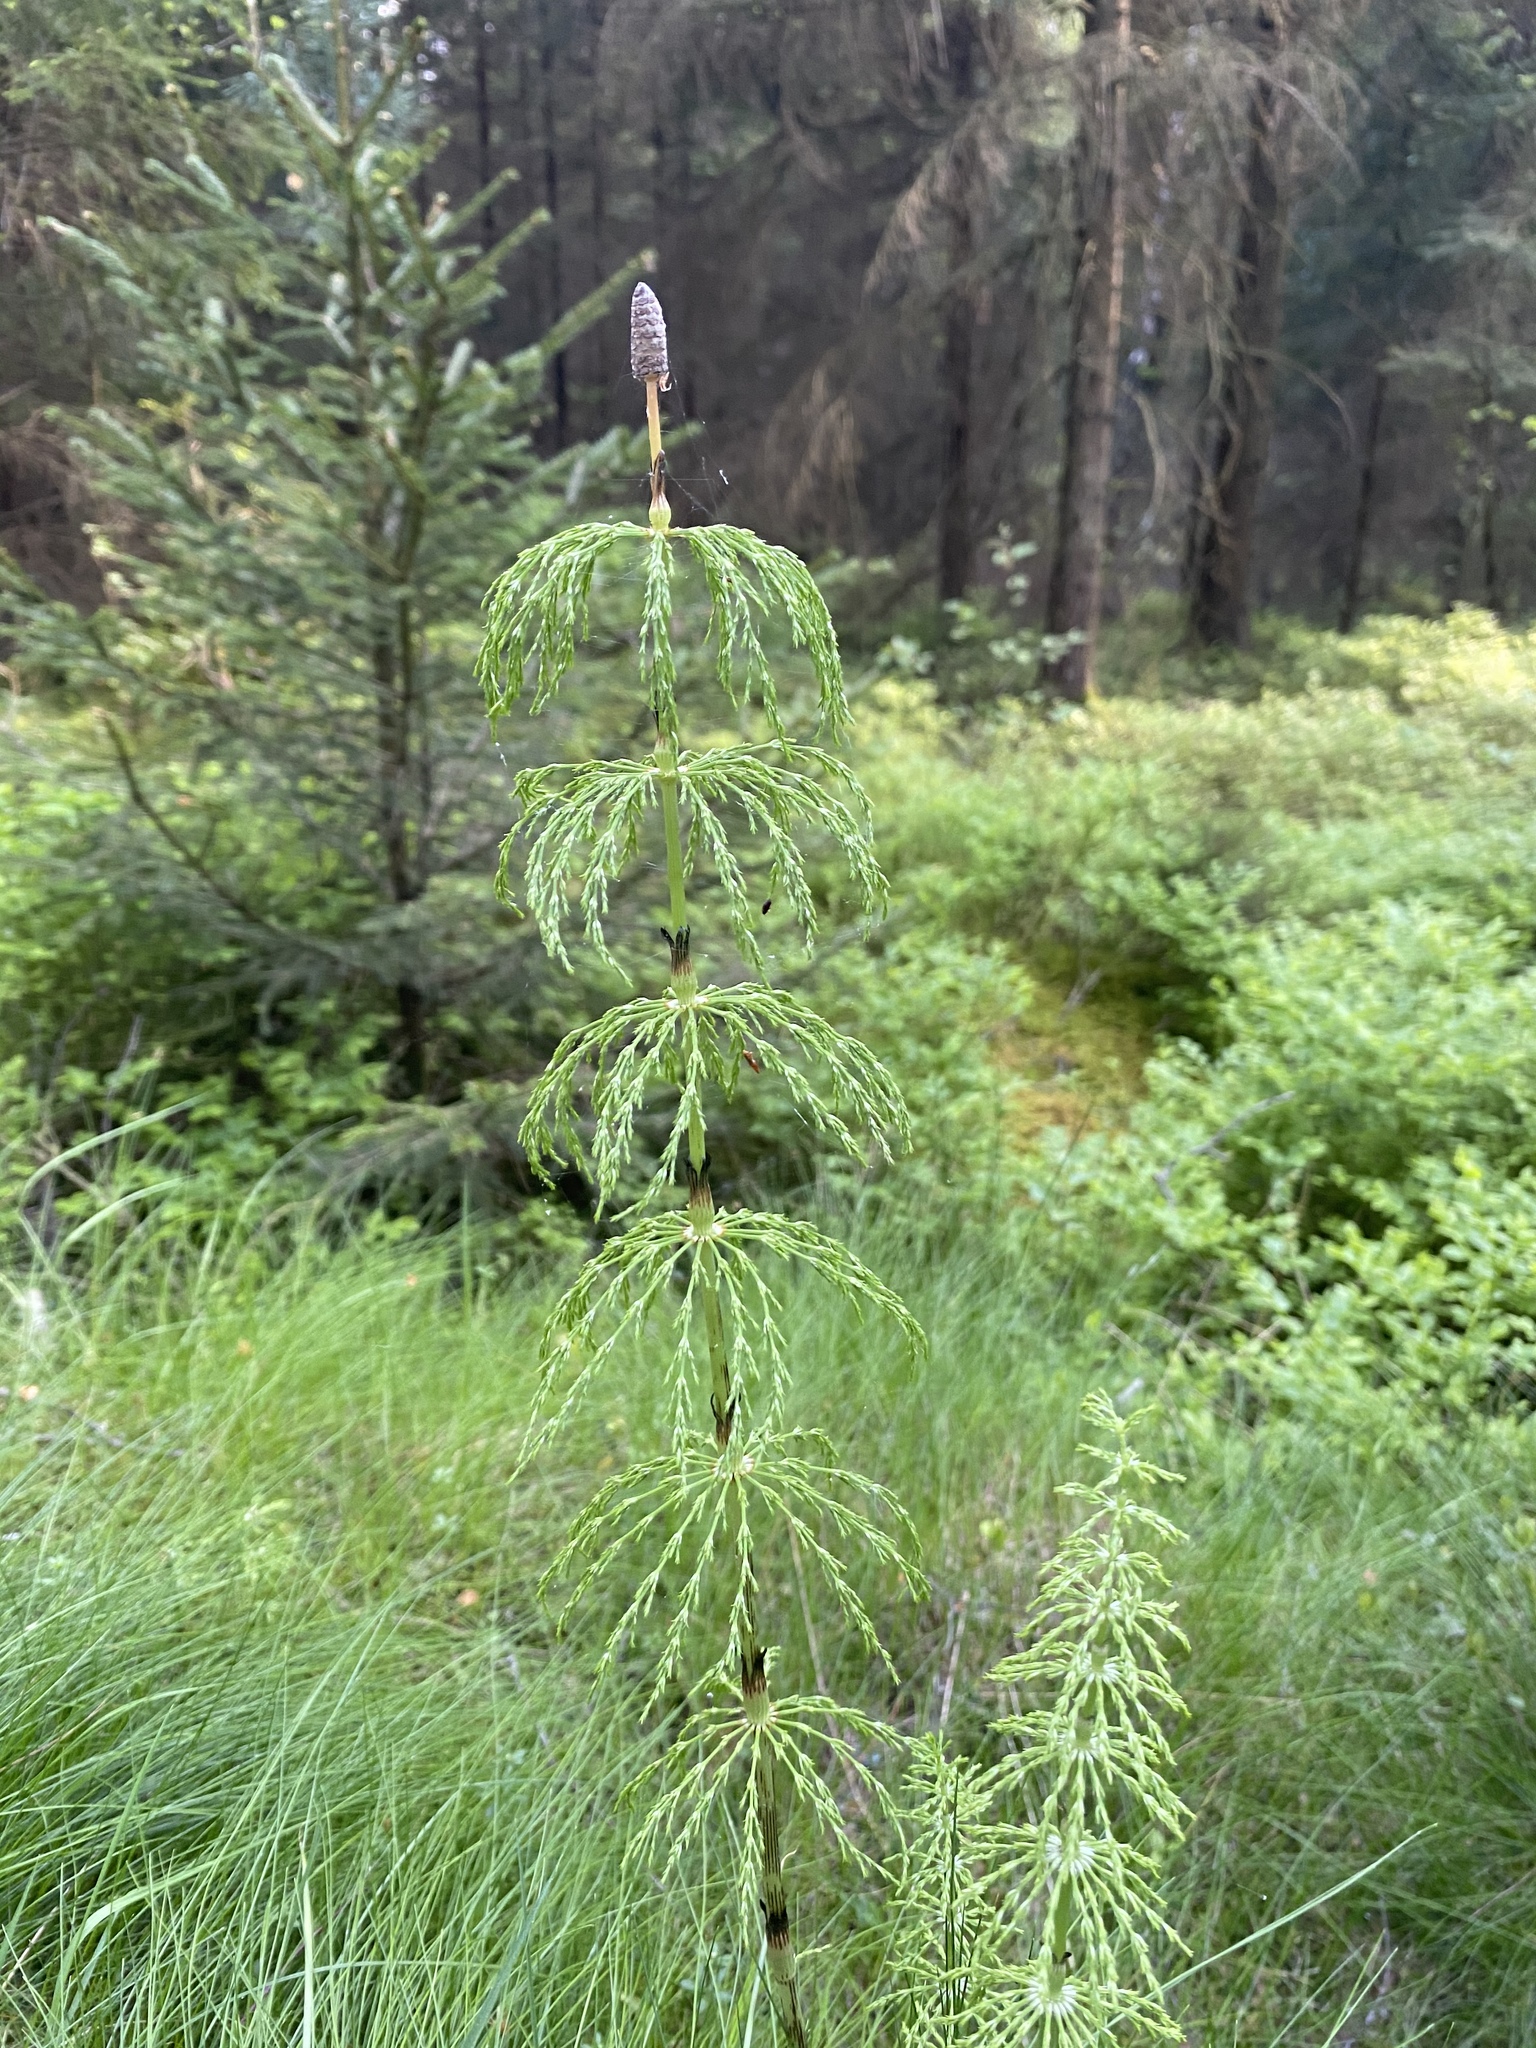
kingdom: Plantae
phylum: Tracheophyta
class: Polypodiopsida
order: Equisetales
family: Equisetaceae
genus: Equisetum
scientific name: Equisetum sylvaticum
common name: Wood horsetail
